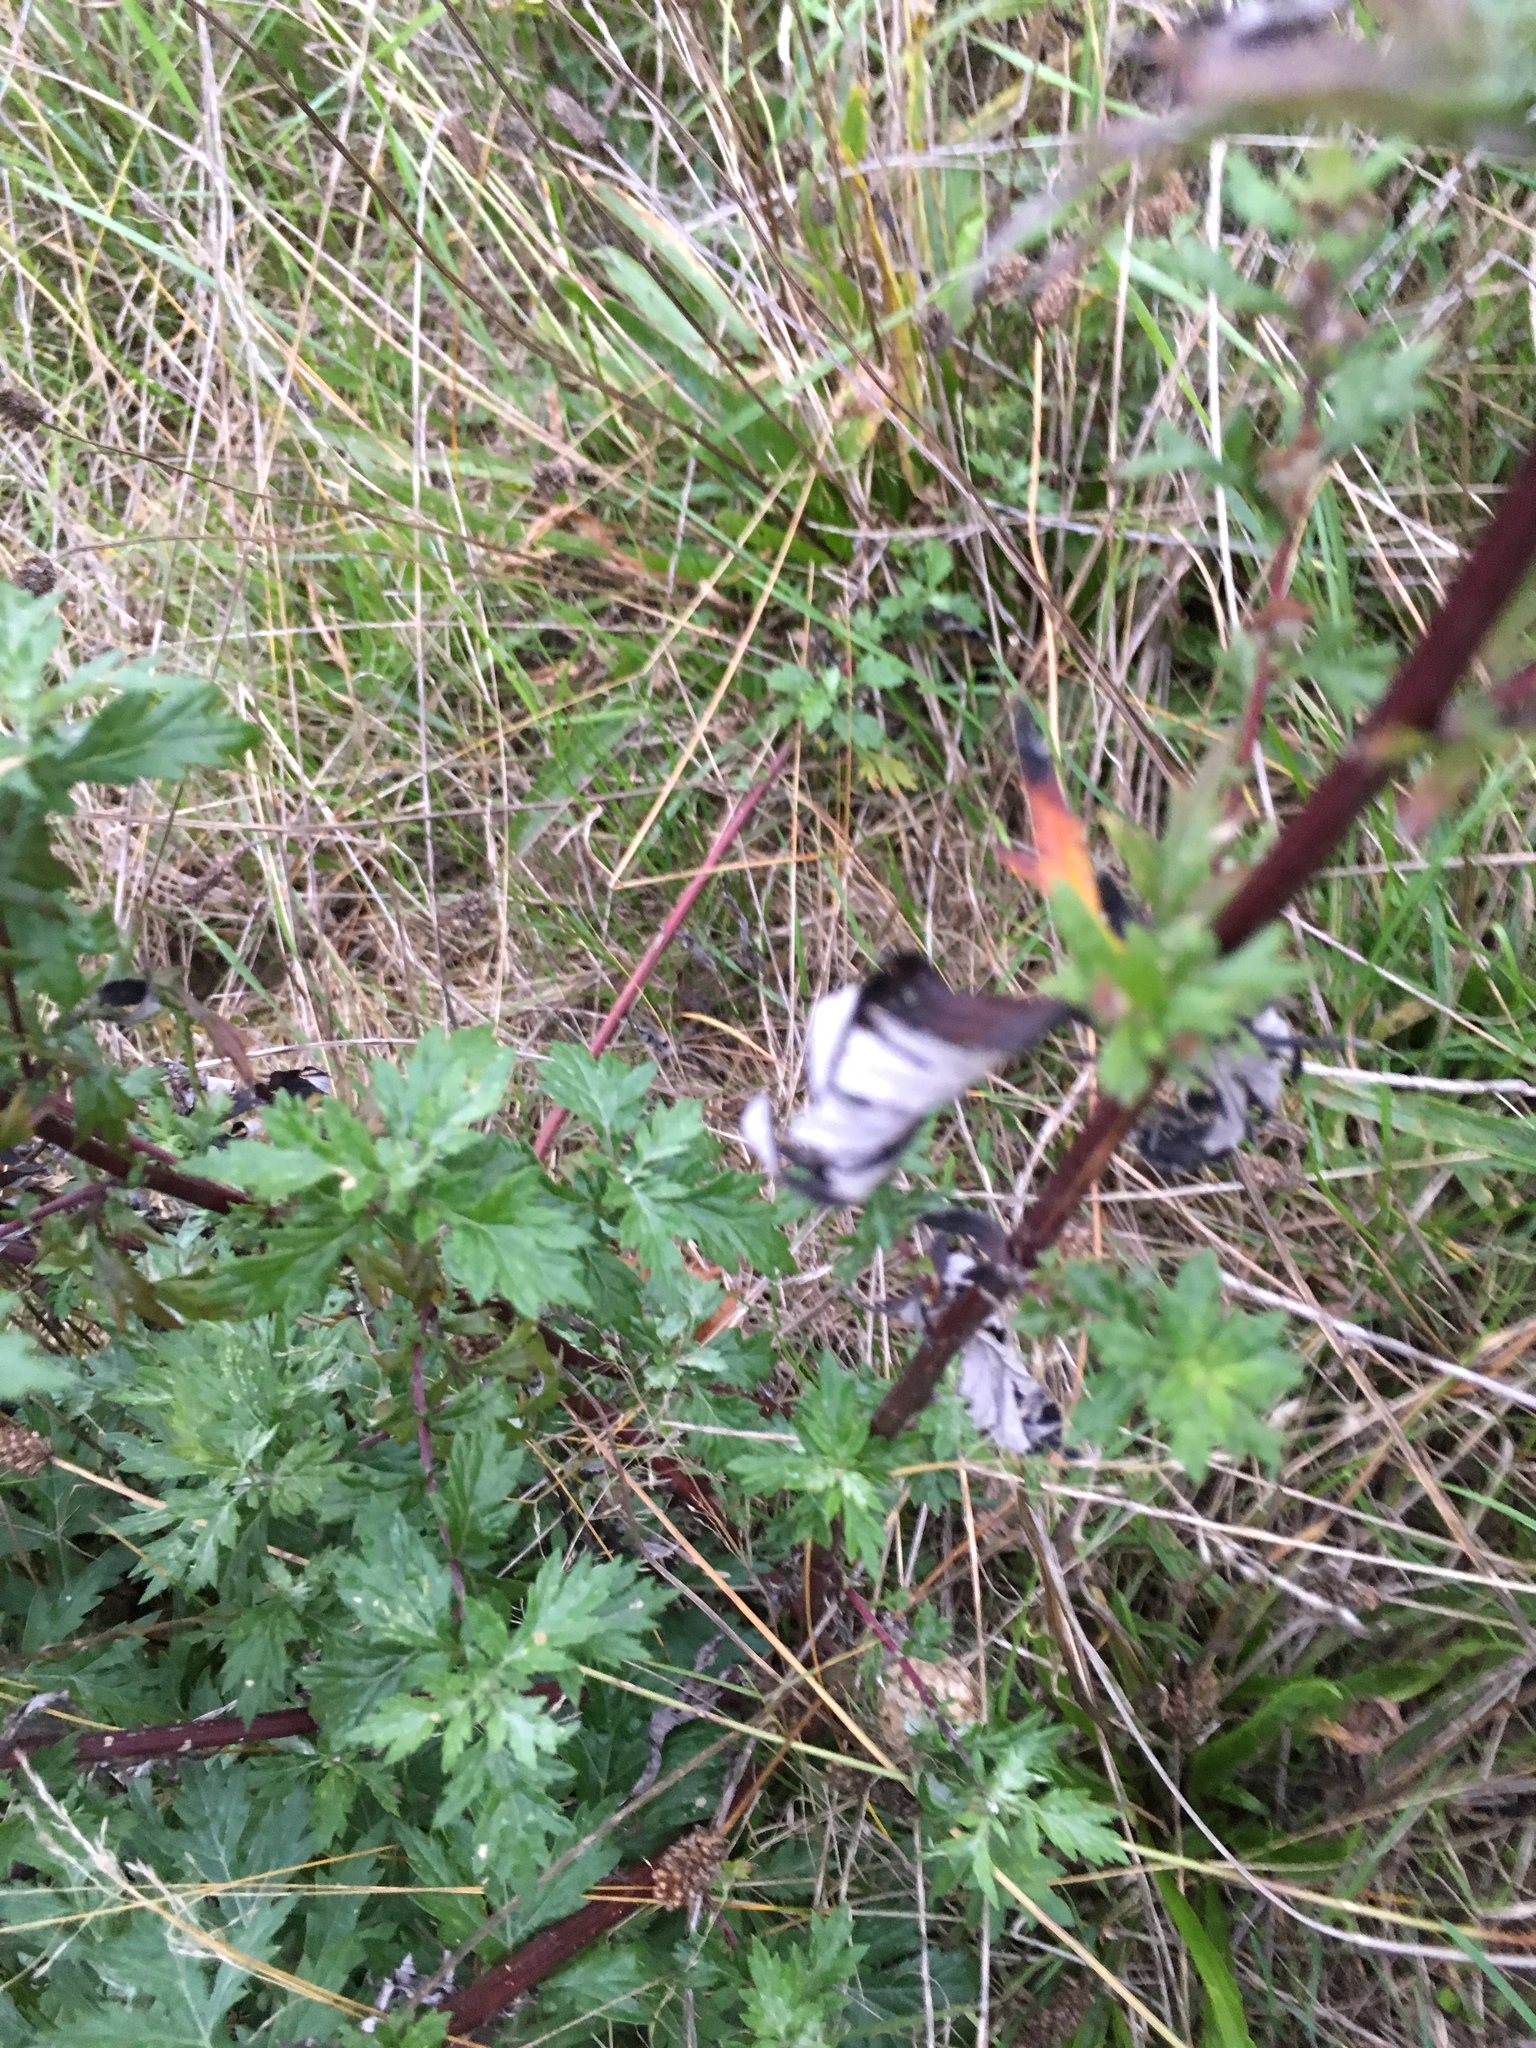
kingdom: Plantae
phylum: Tracheophyta
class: Magnoliopsida
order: Asterales
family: Asteraceae
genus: Artemisia
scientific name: Artemisia vulgaris
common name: Mugwort
